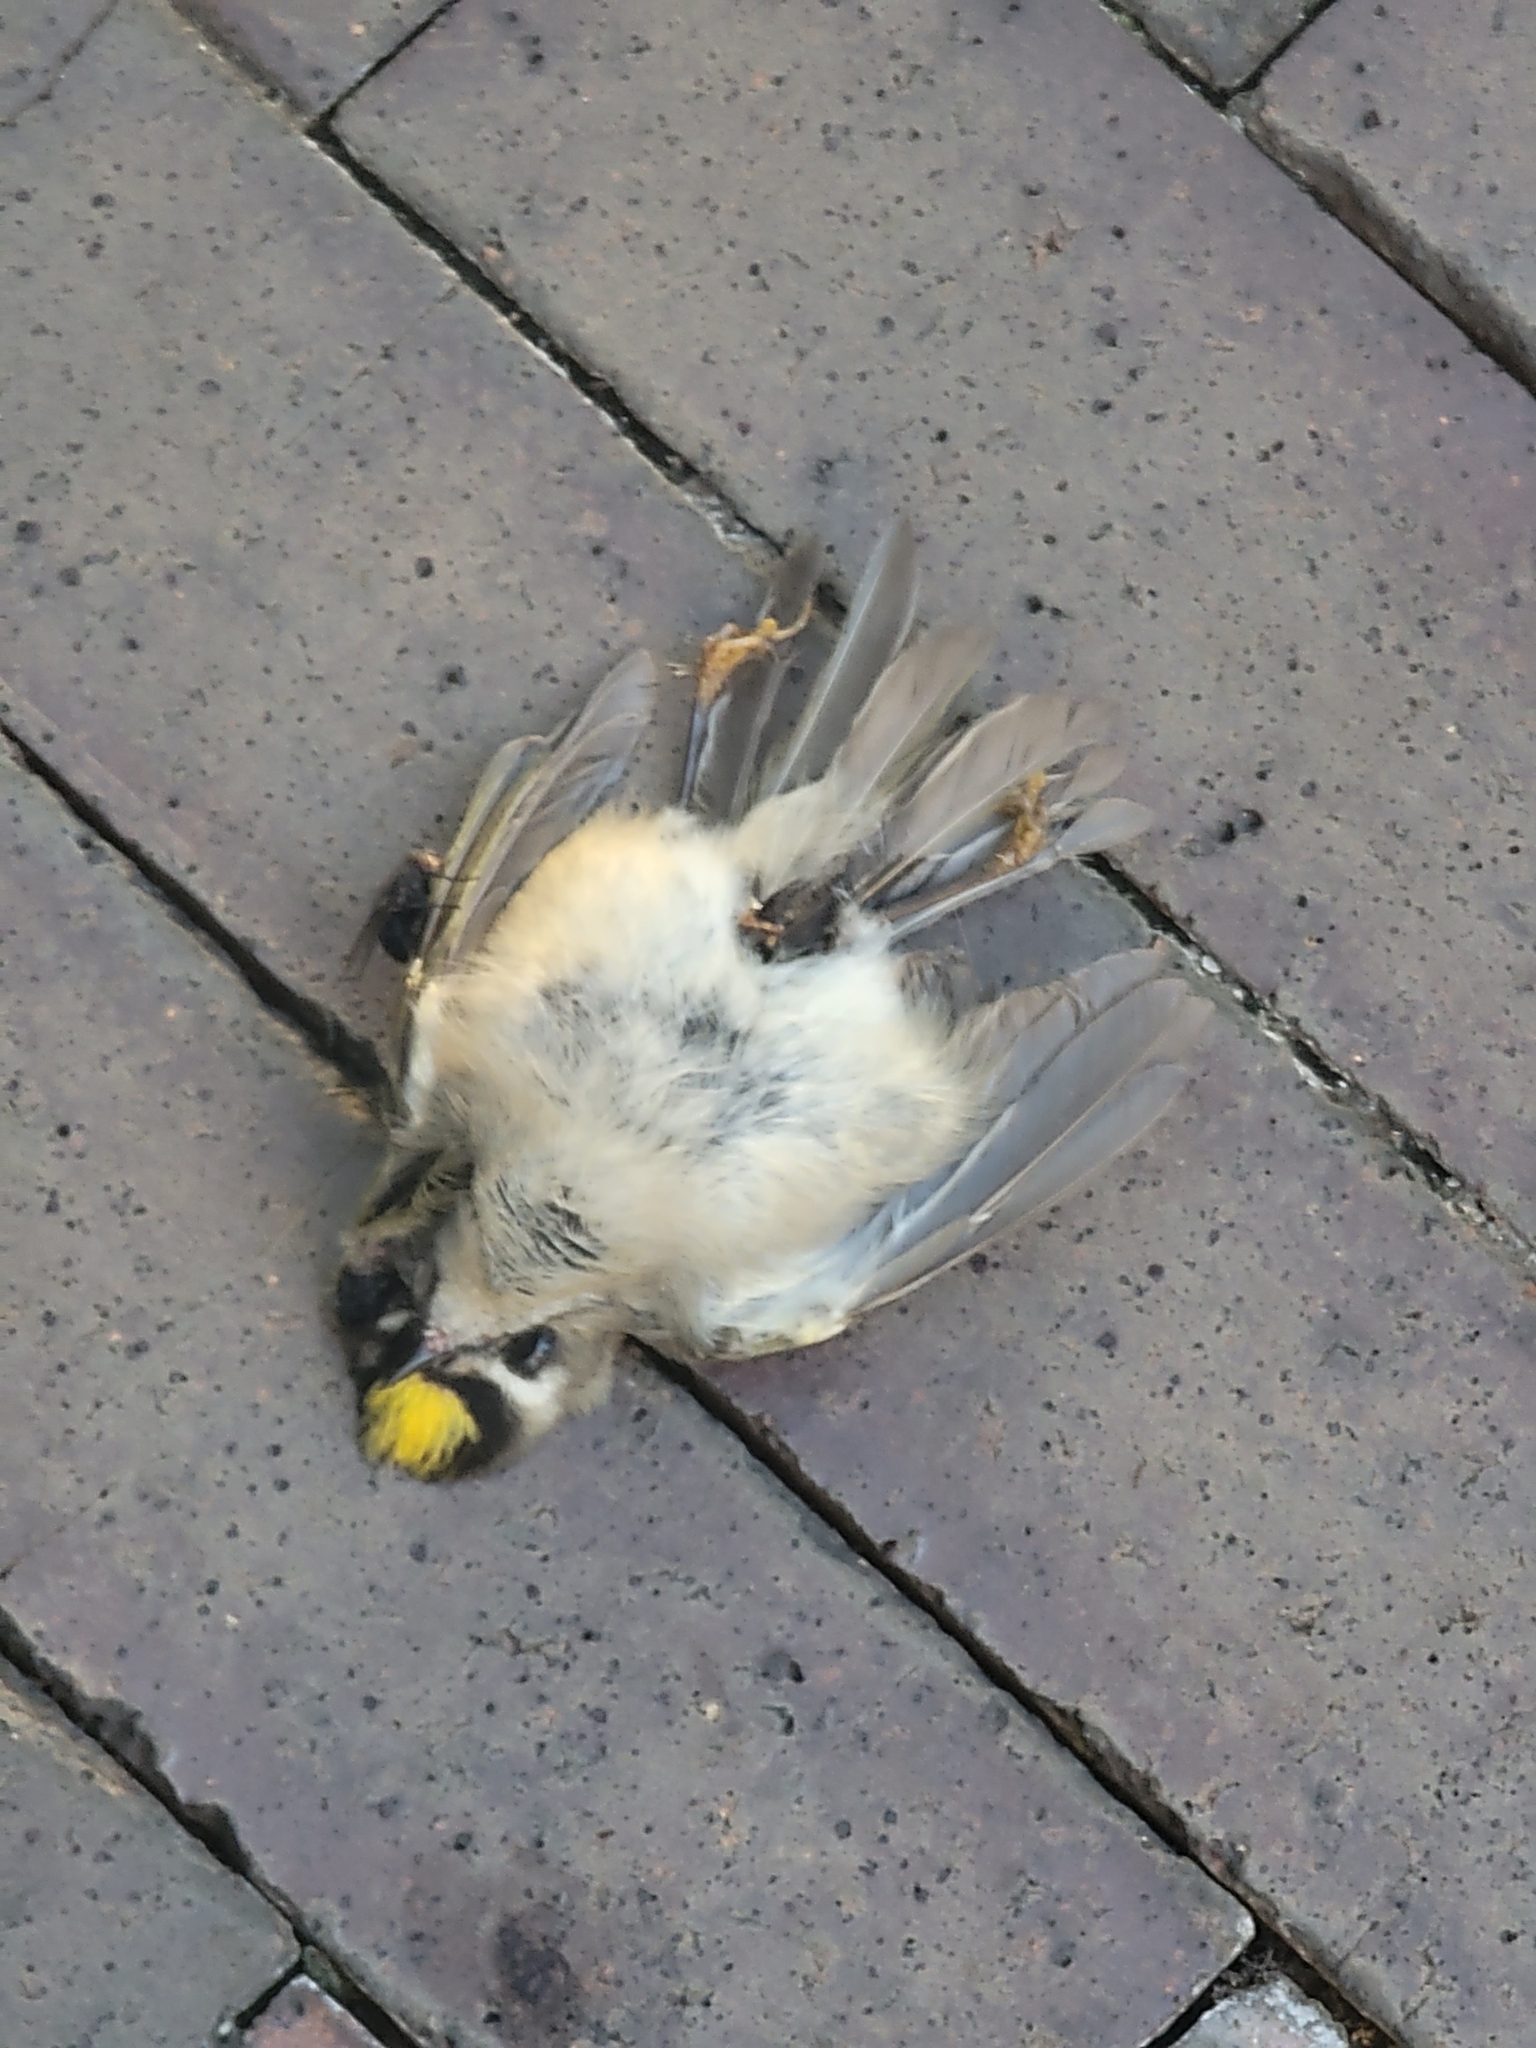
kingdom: Animalia
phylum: Chordata
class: Aves
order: Passeriformes
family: Regulidae
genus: Regulus
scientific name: Regulus satrapa
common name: Golden-crowned kinglet
